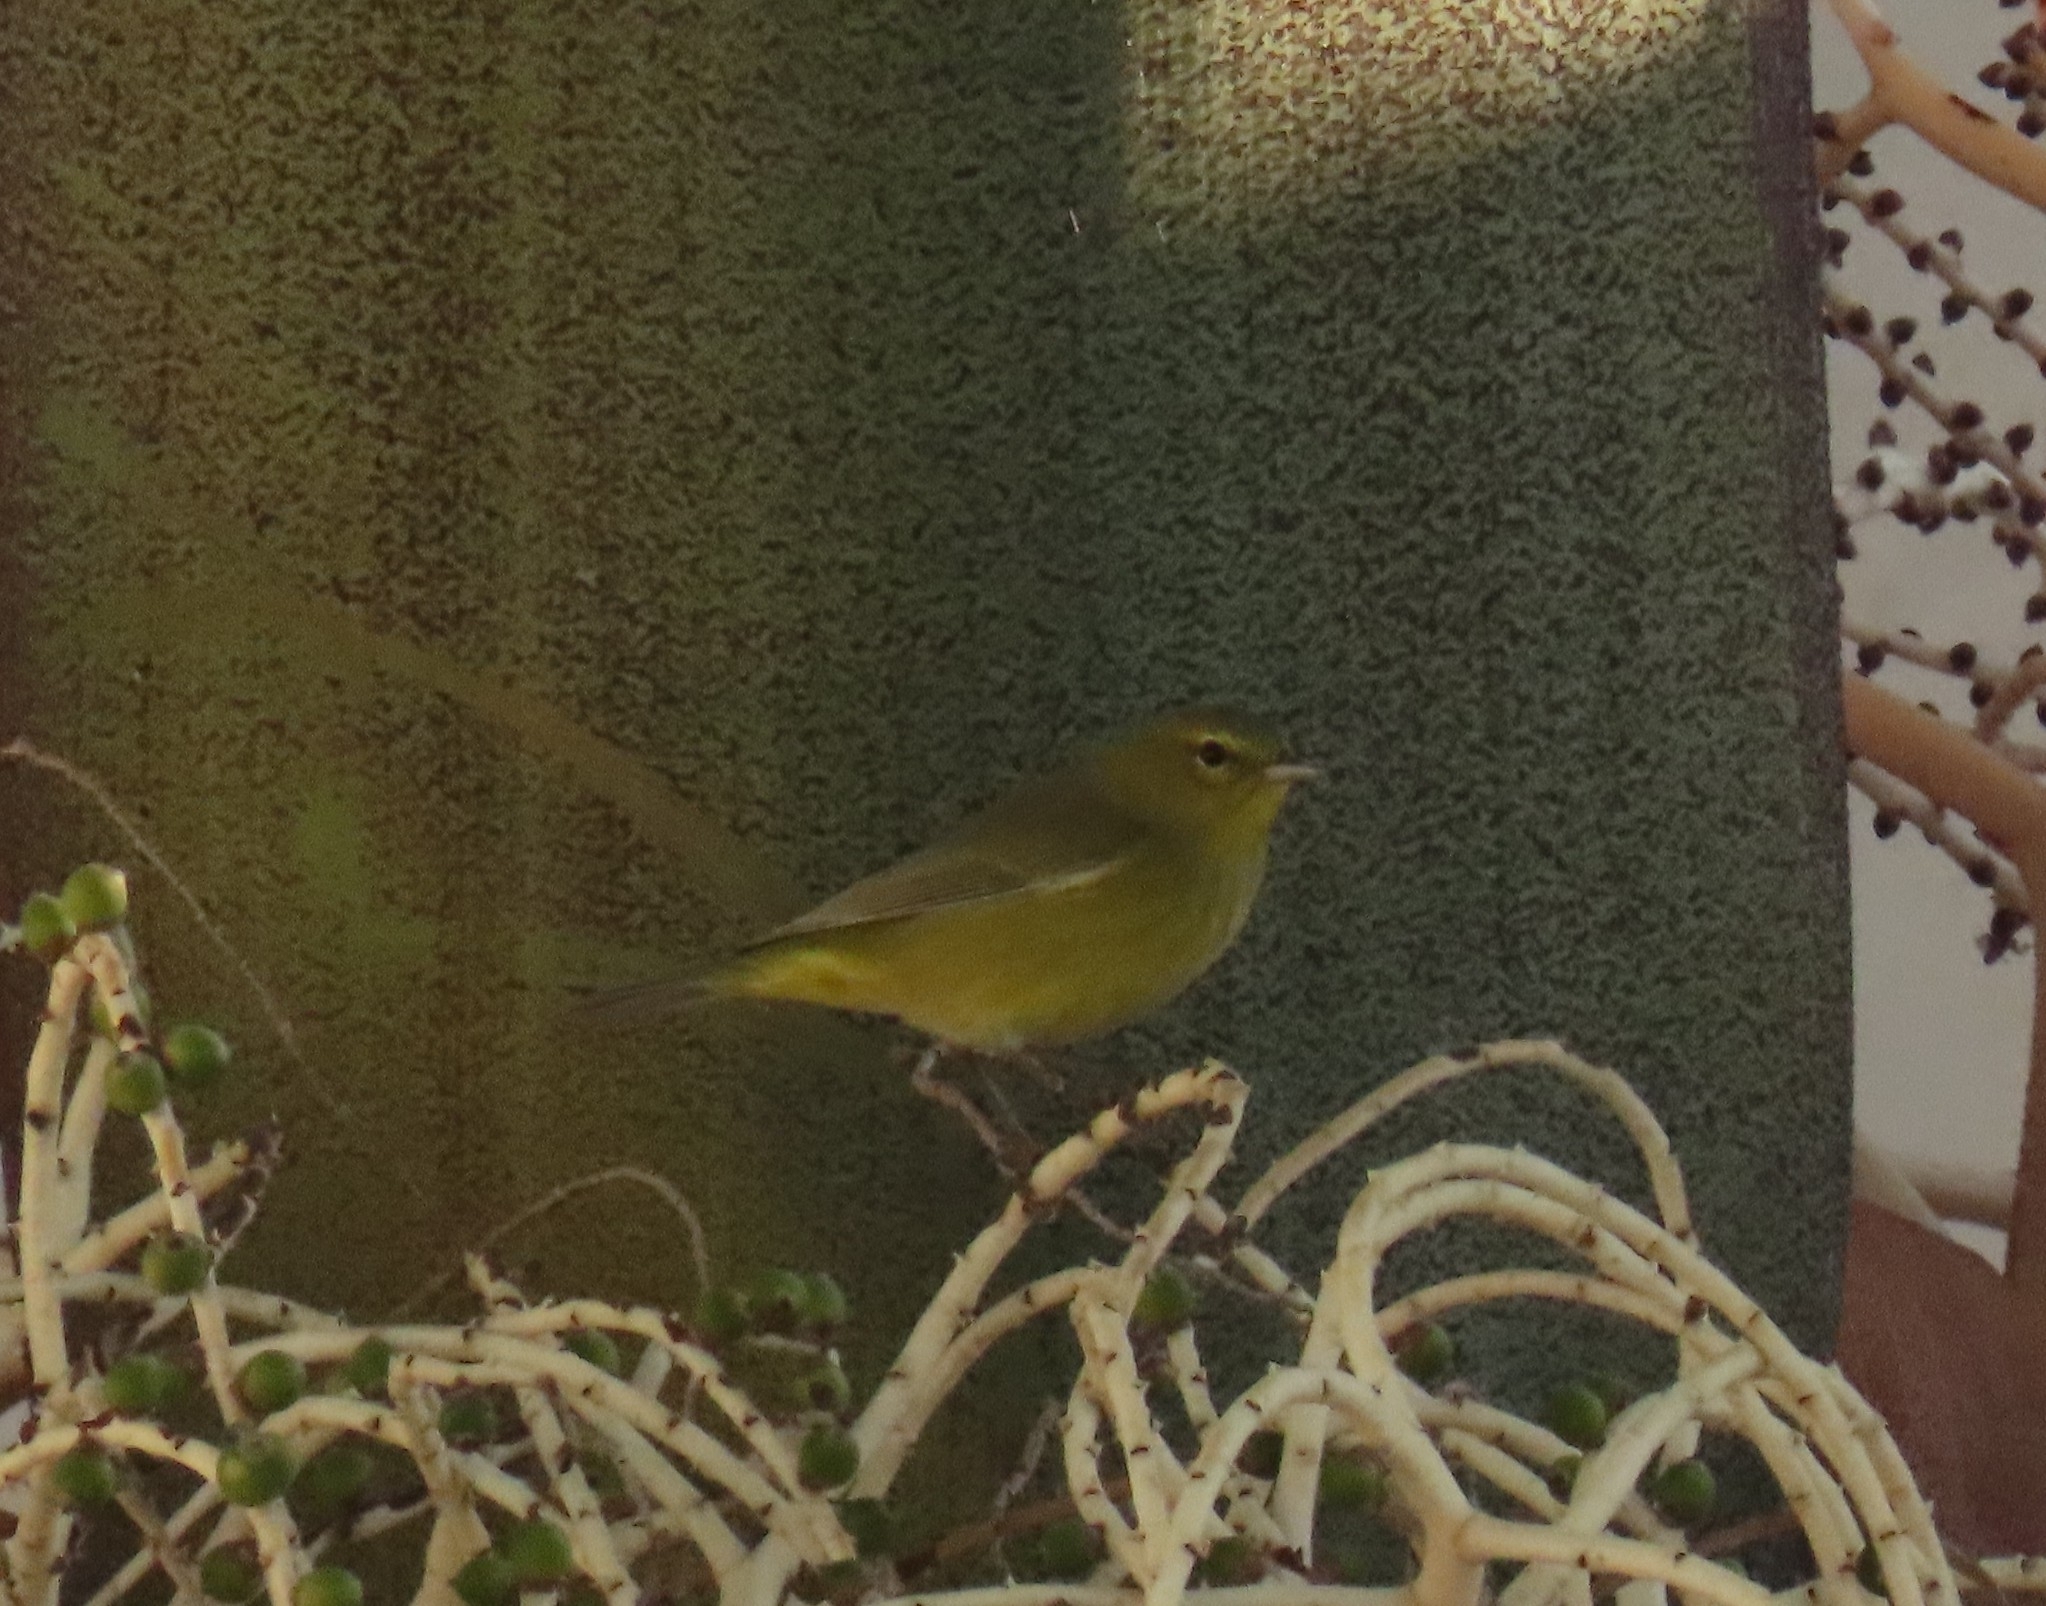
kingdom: Animalia
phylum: Chordata
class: Aves
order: Passeriformes
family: Parulidae
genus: Leiothlypis
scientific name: Leiothlypis celata
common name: Orange-crowned warbler
